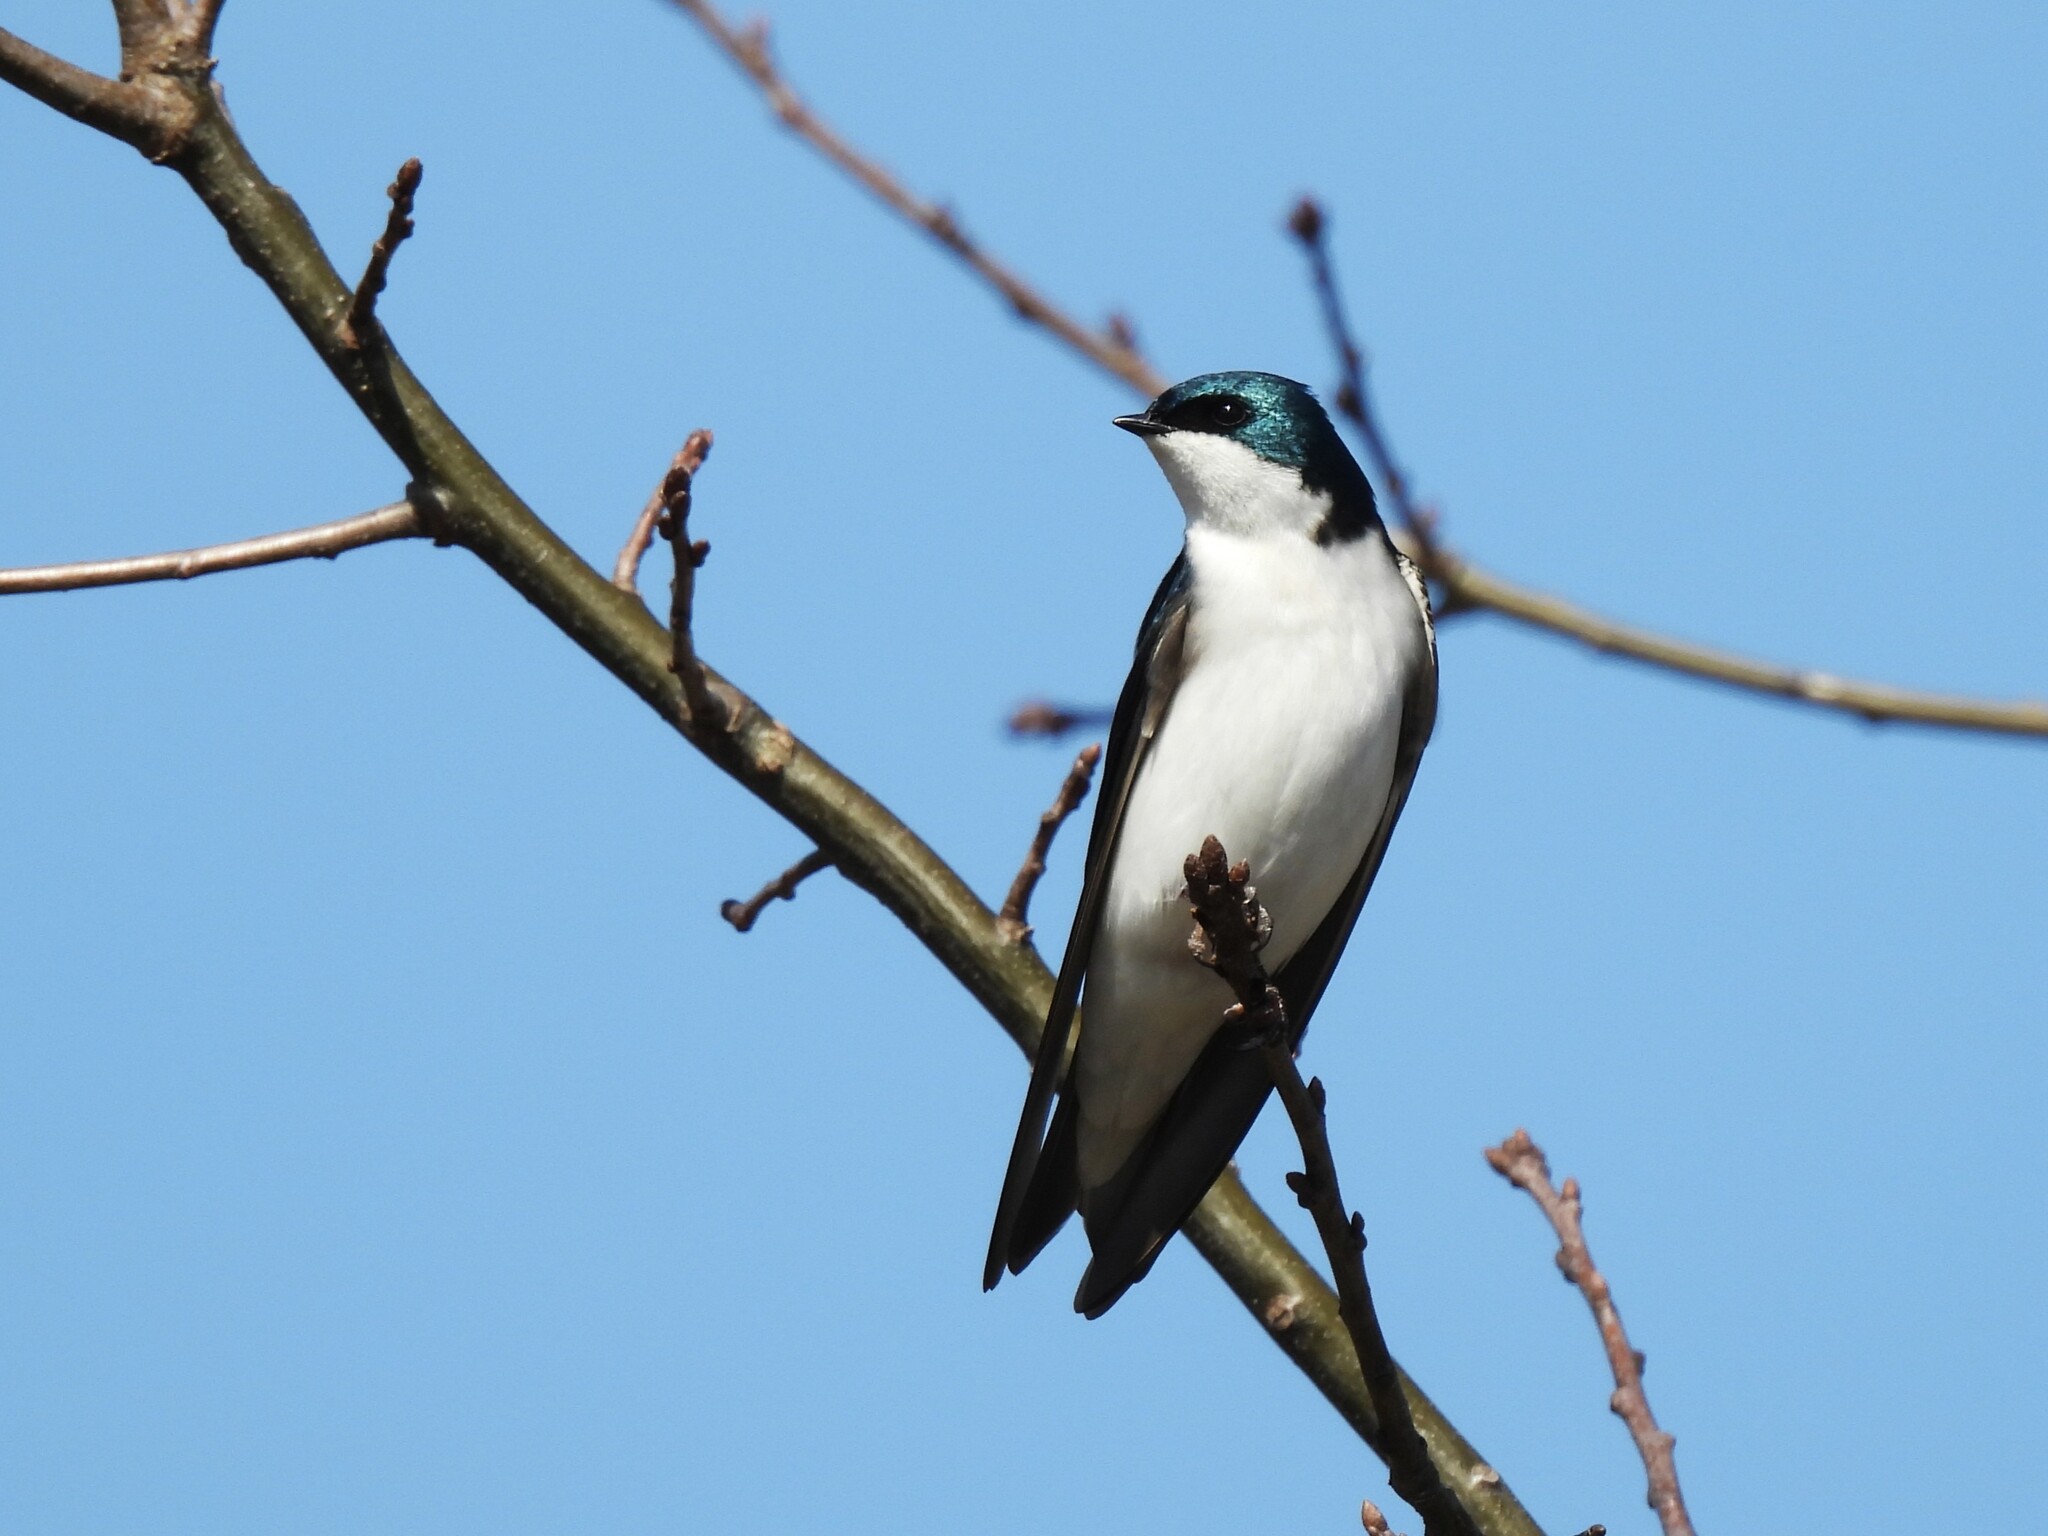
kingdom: Animalia
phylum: Chordata
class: Aves
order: Passeriformes
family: Hirundinidae
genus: Tachycineta
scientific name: Tachycineta bicolor
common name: Tree swallow
